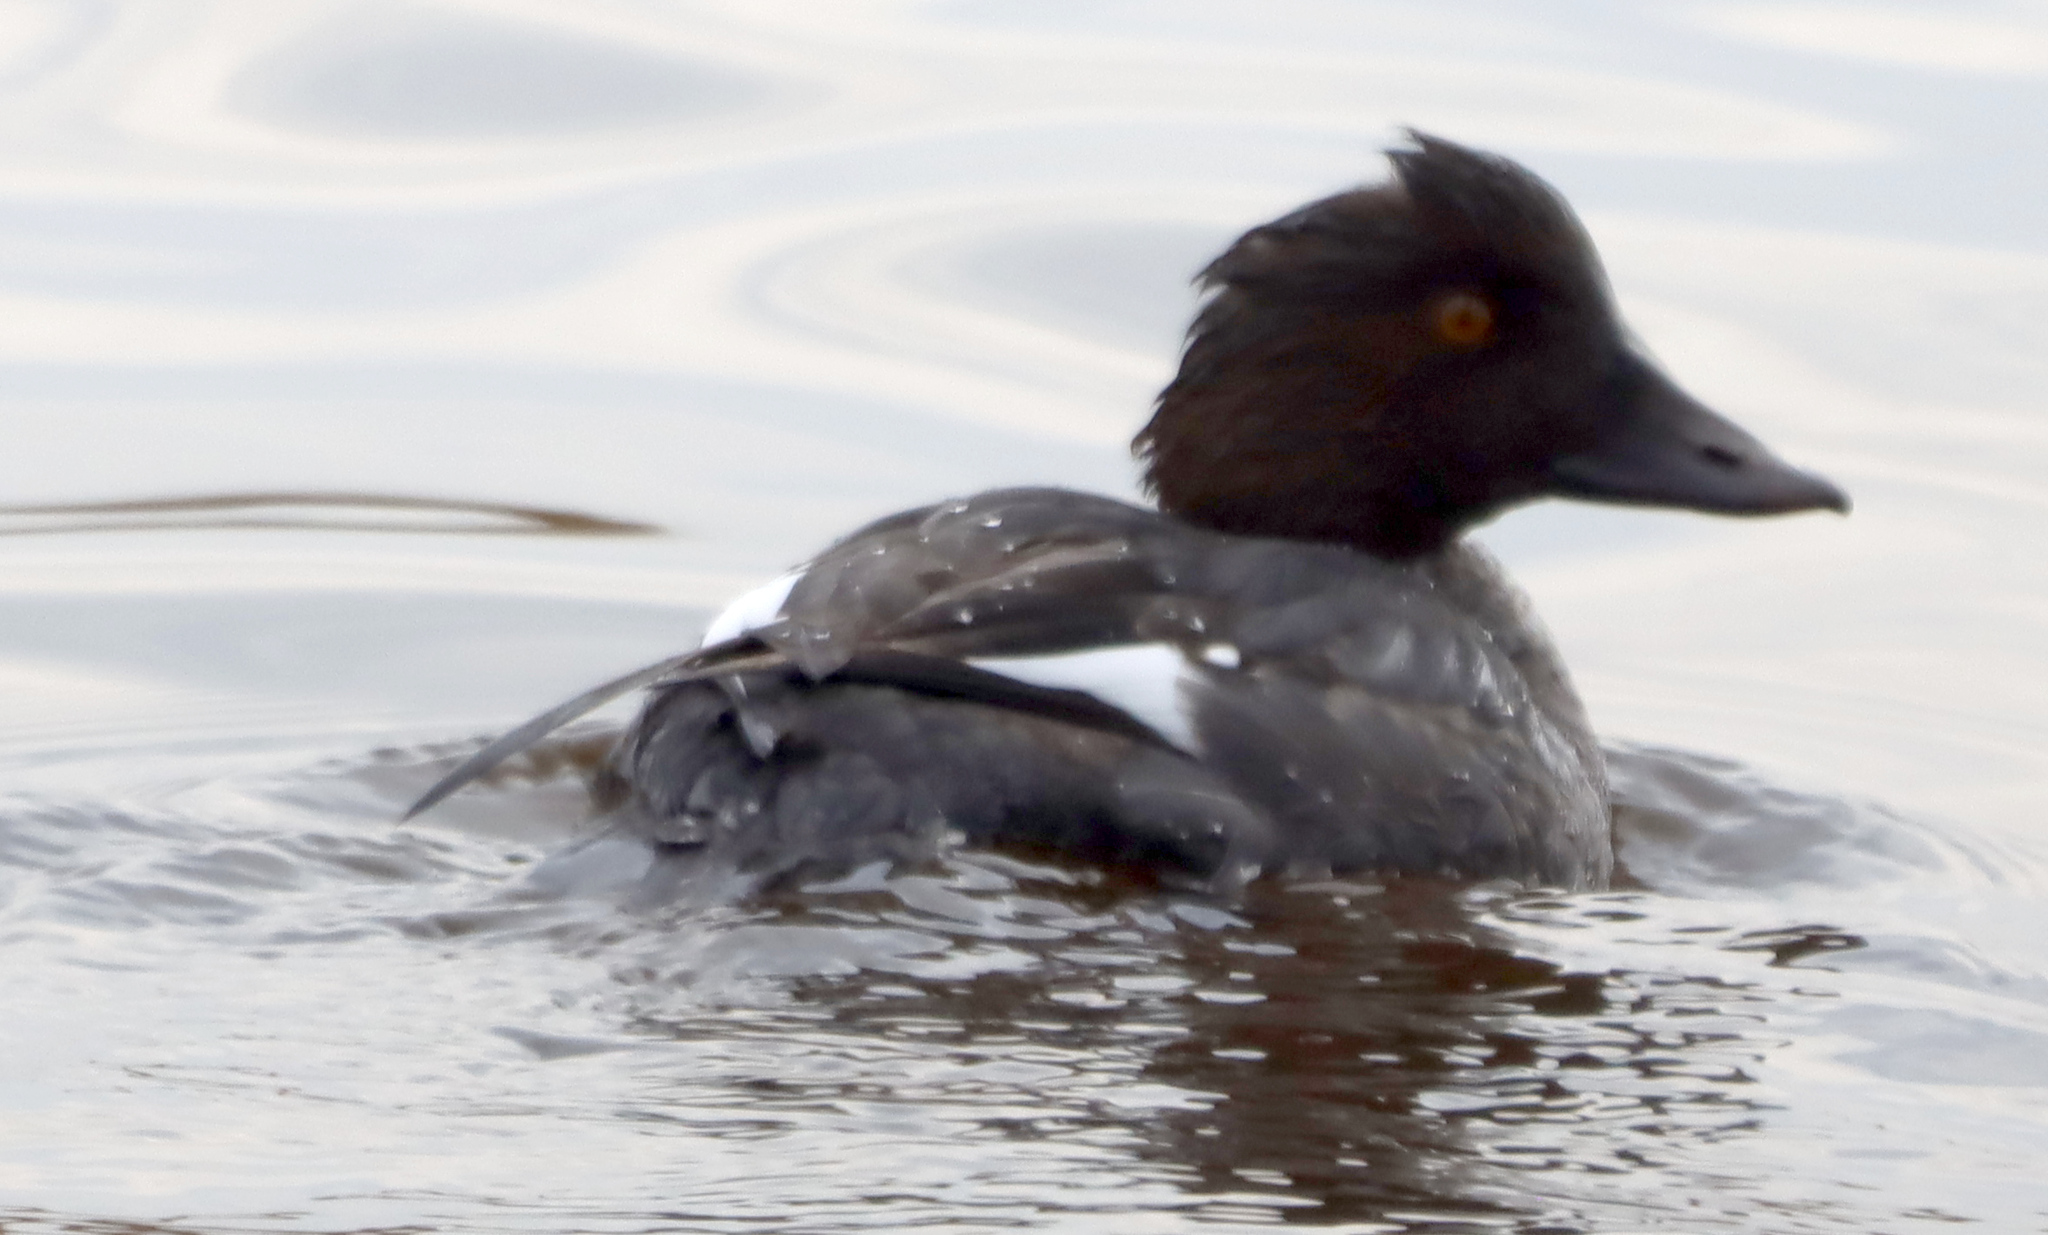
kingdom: Animalia
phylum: Chordata
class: Aves
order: Anseriformes
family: Anatidae
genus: Bucephala
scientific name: Bucephala clangula
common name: Common goldeneye
